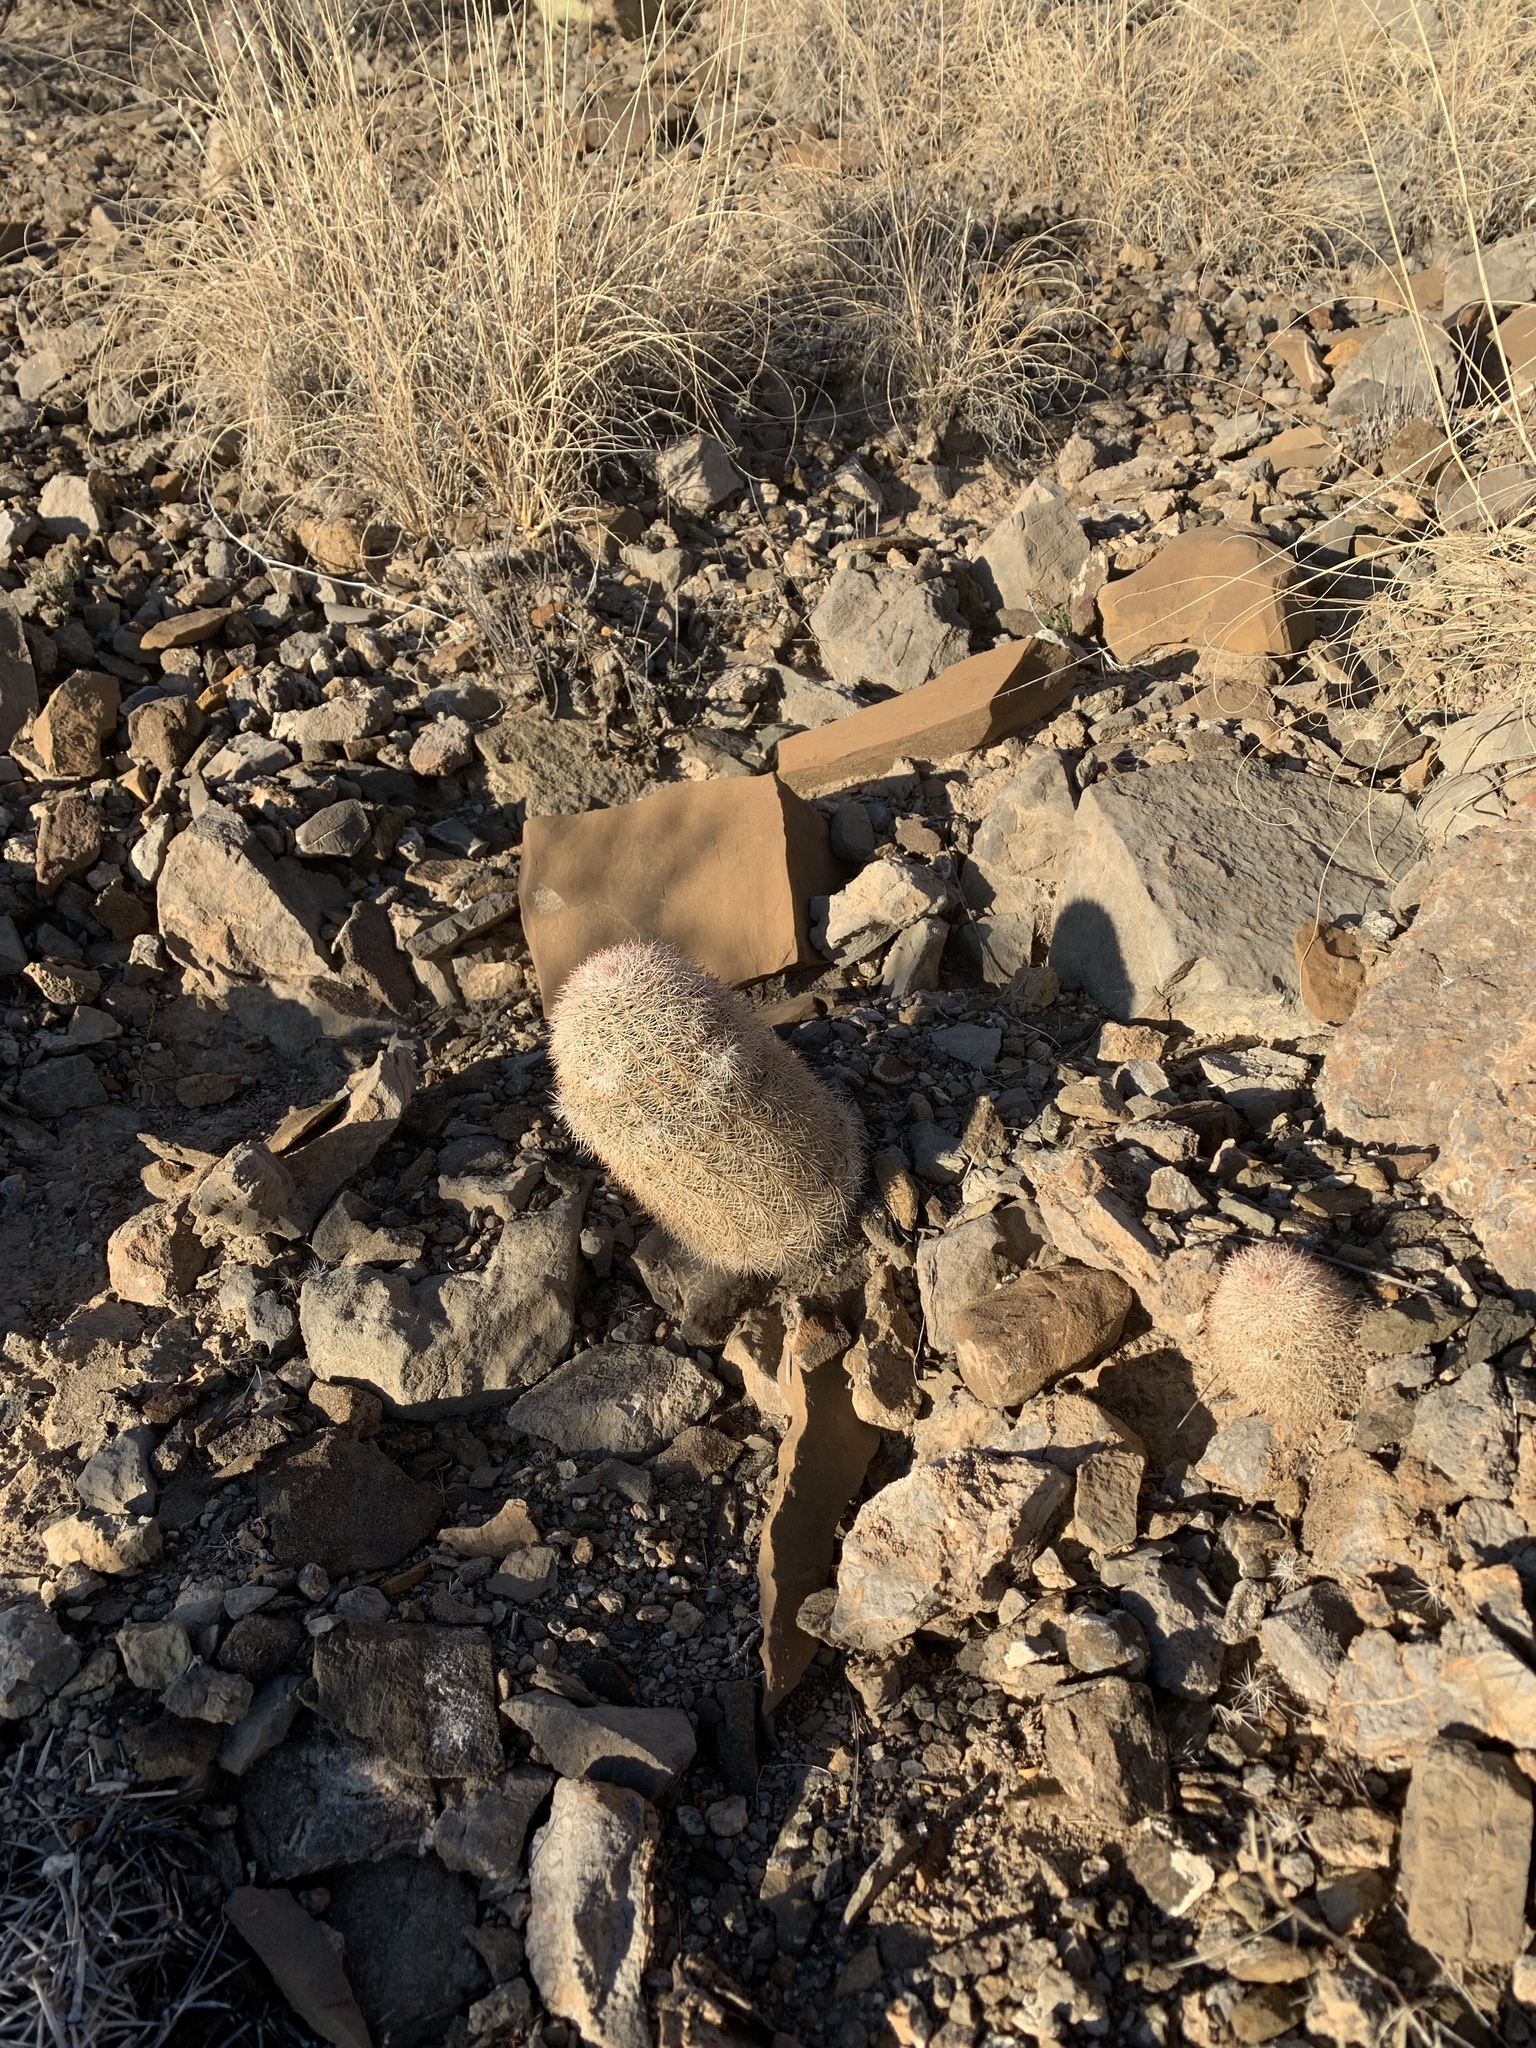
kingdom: Plantae
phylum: Tracheophyta
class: Magnoliopsida
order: Caryophyllales
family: Cactaceae
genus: Echinocereus
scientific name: Echinocereus dasyacanthus
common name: Spiny hedgehog cactus
